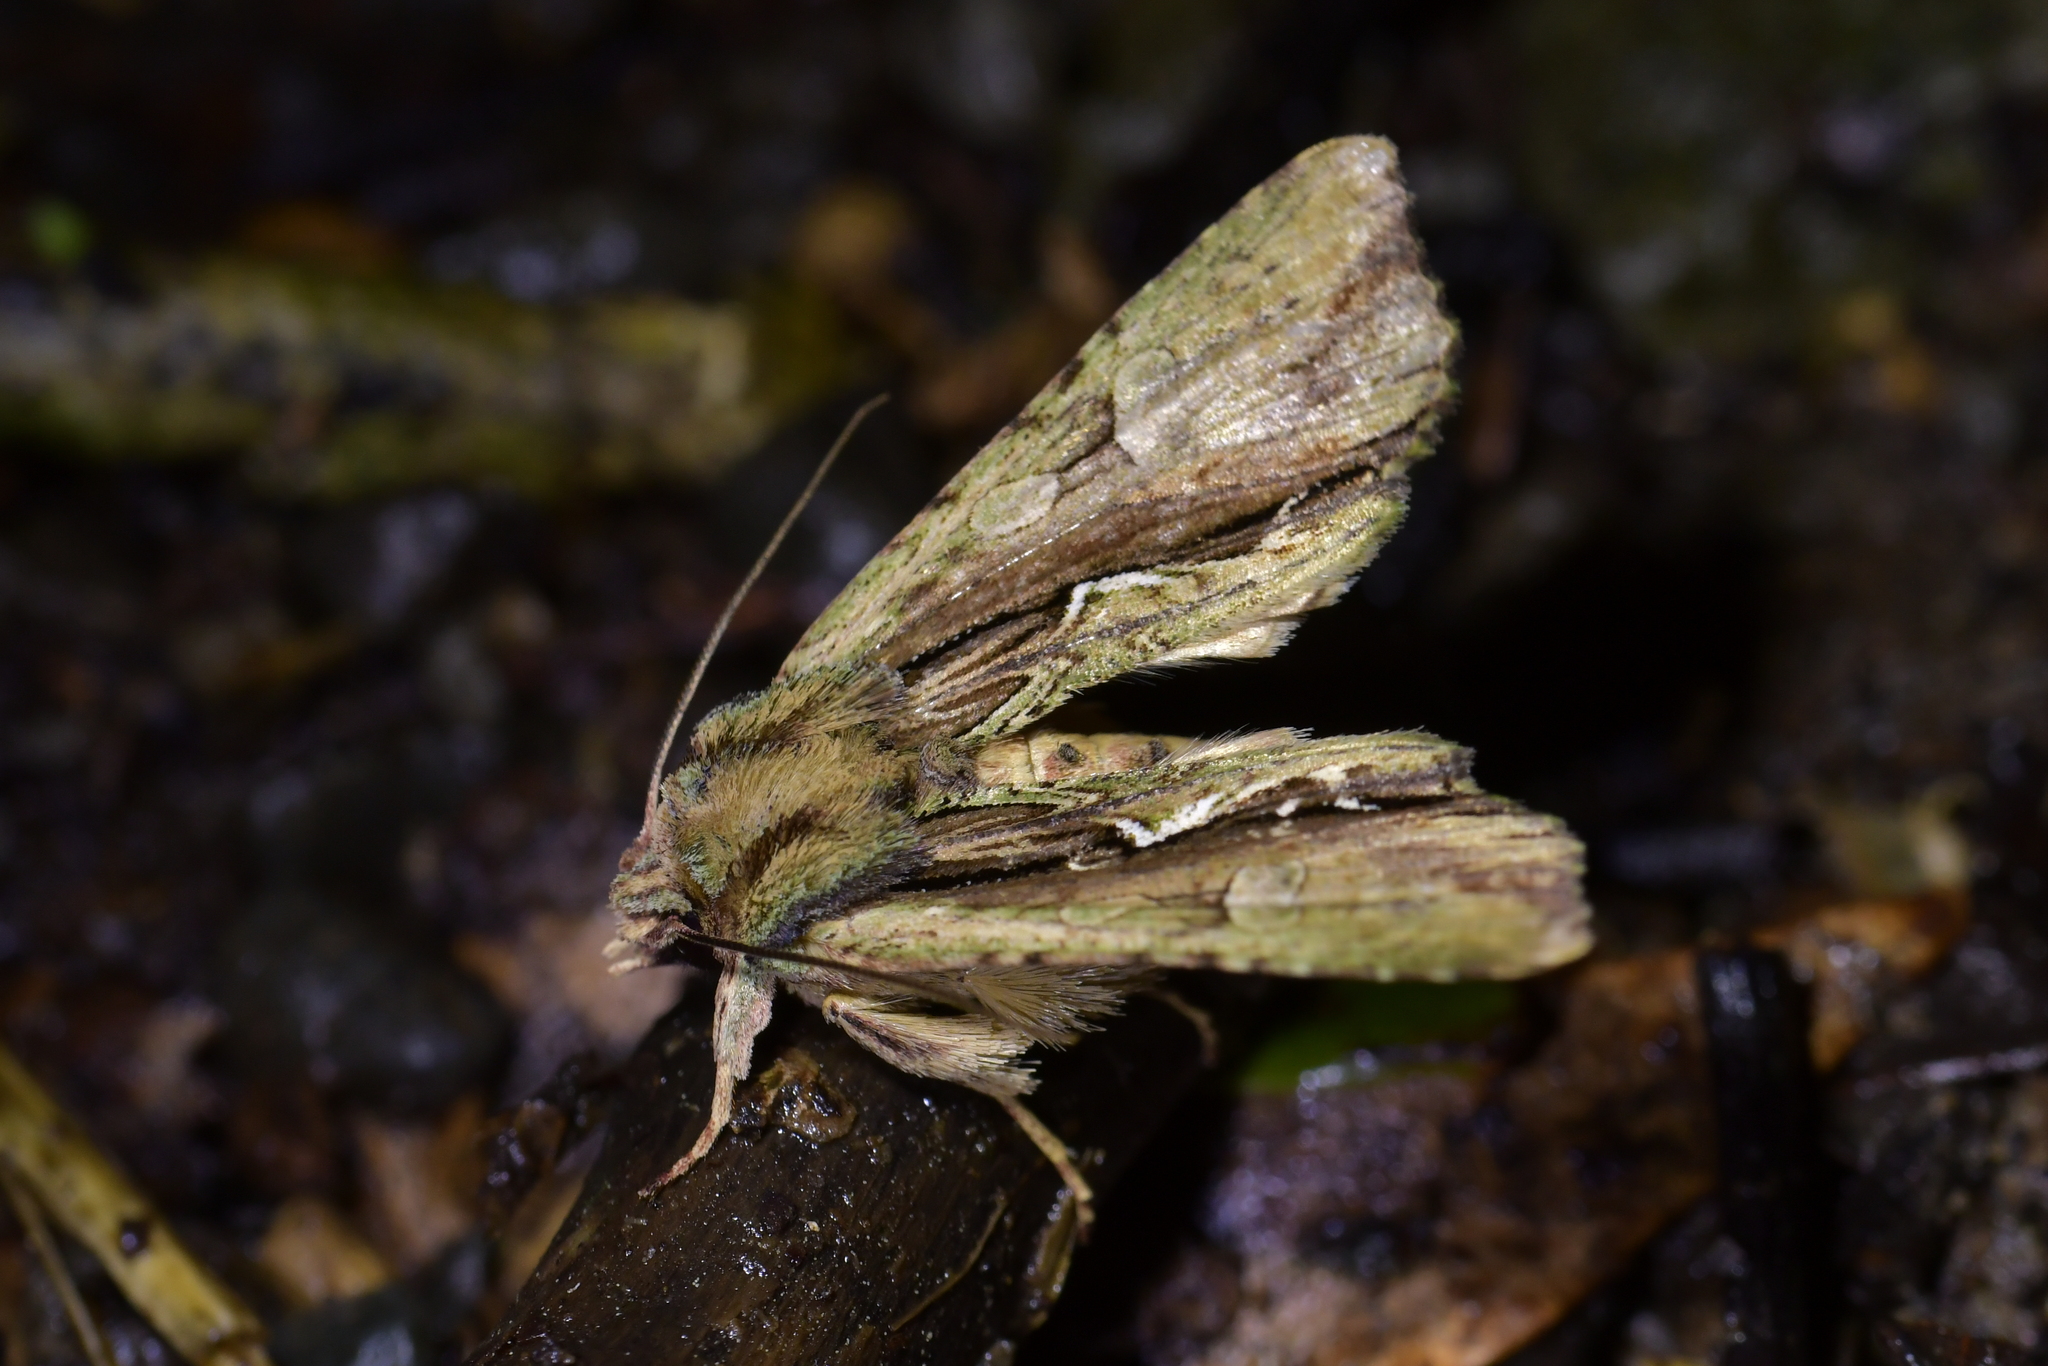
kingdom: Animalia
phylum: Arthropoda
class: Insecta
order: Lepidoptera
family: Noctuidae
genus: Meterana
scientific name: Meterana decorata
